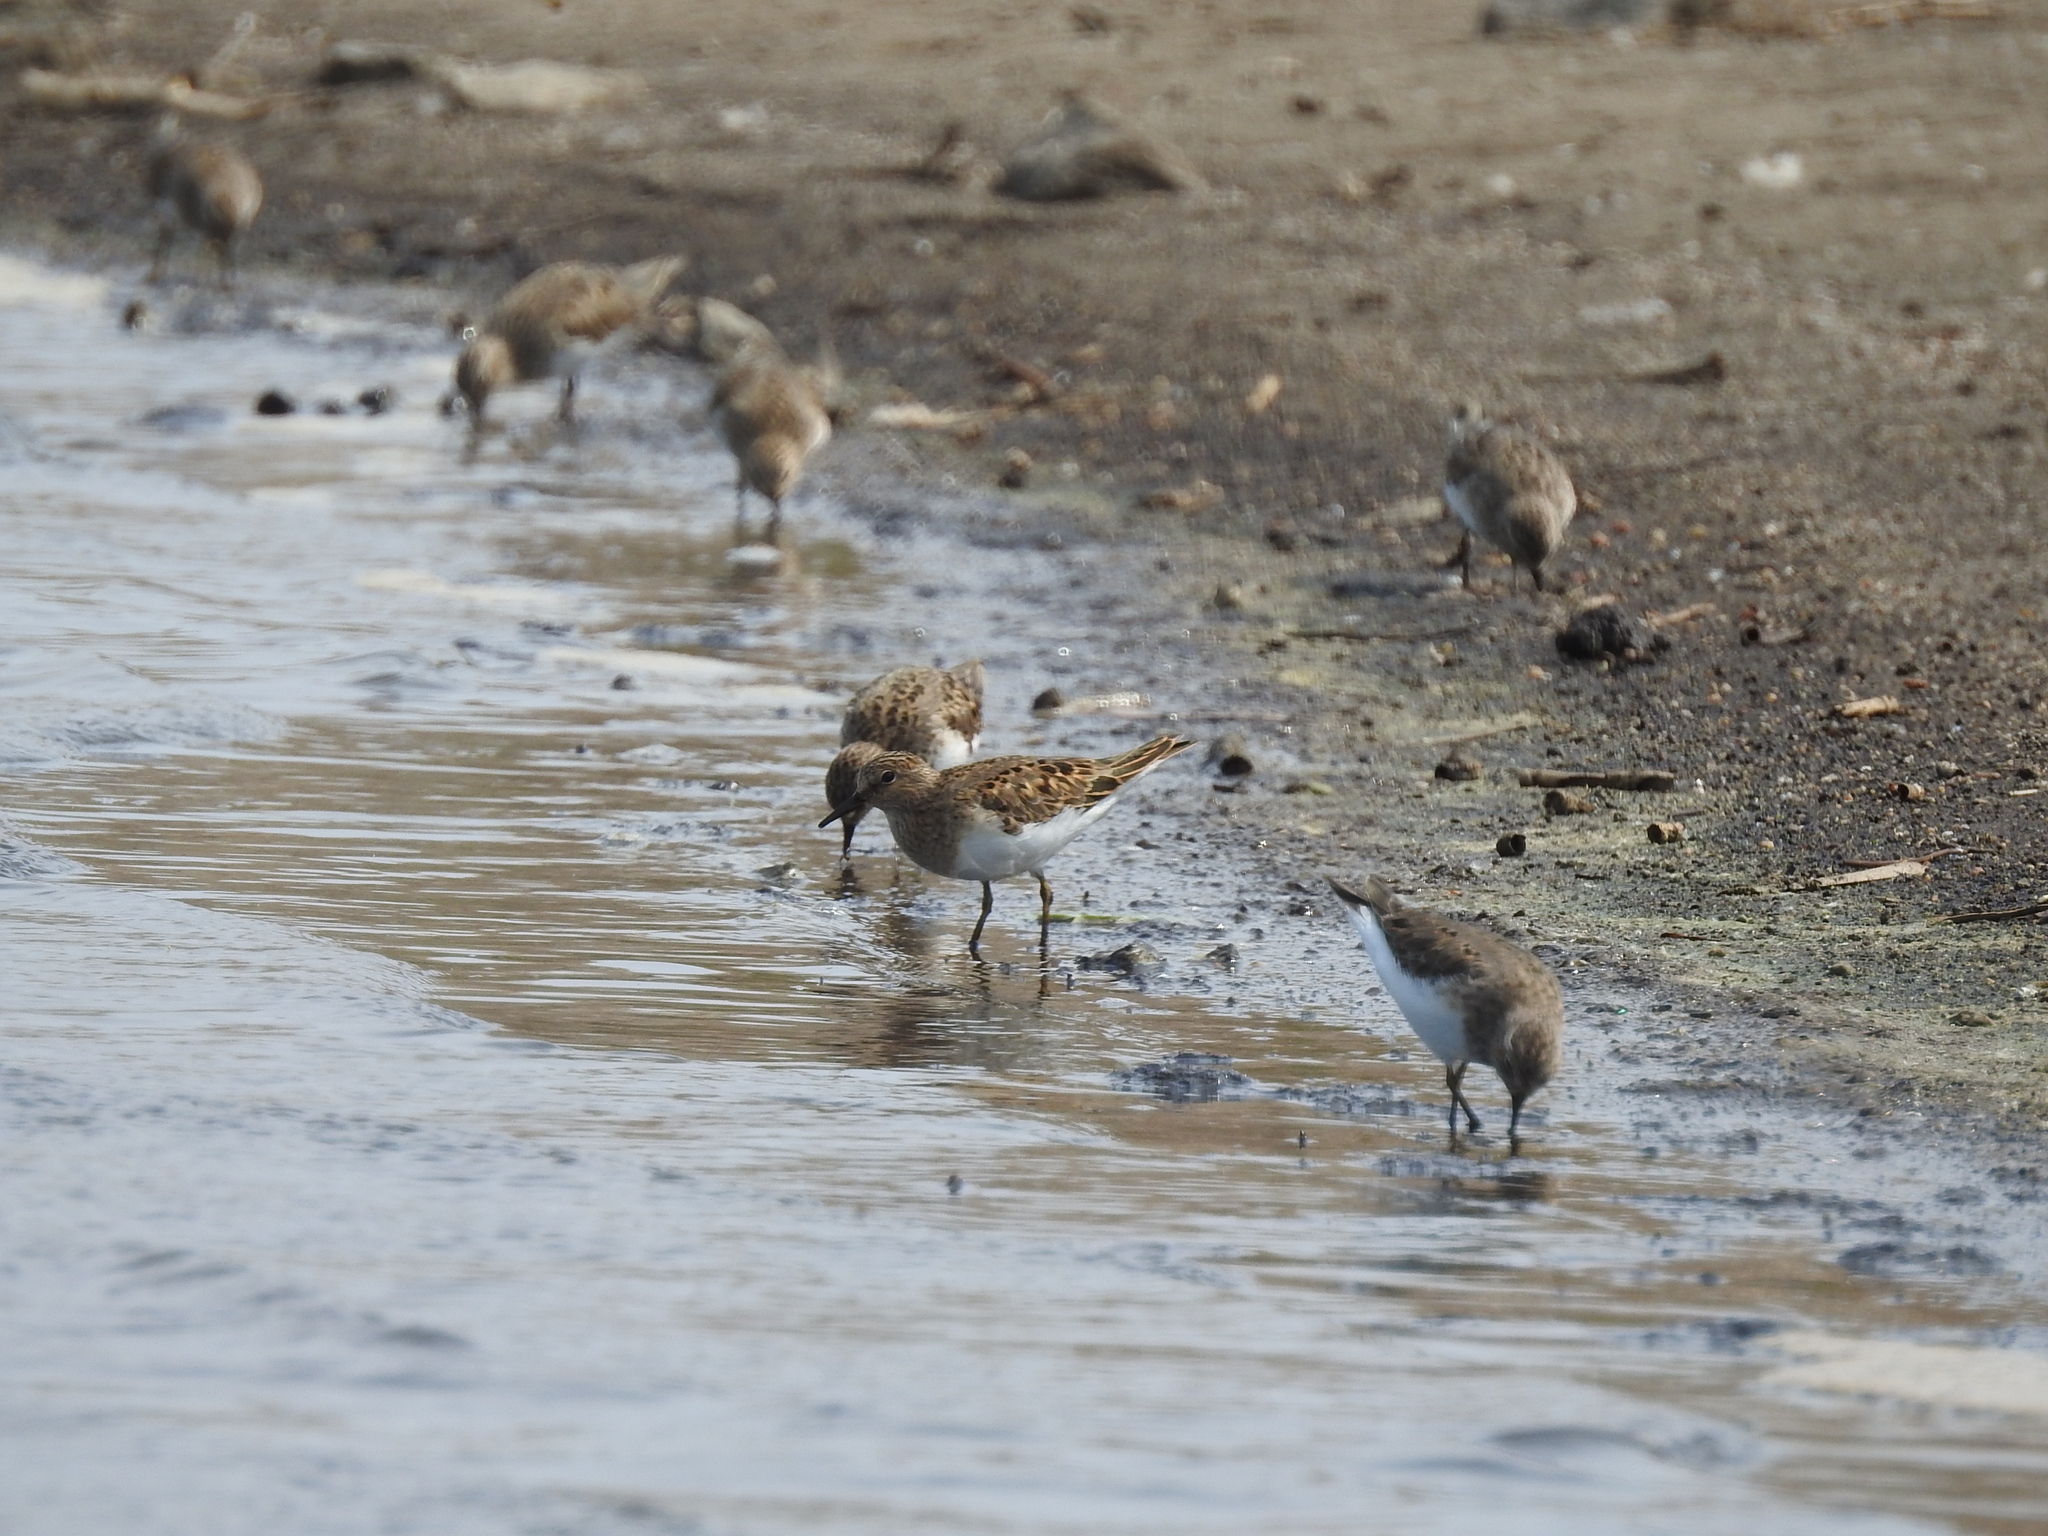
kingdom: Animalia
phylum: Chordata
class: Aves
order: Charadriiformes
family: Scolopacidae
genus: Calidris
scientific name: Calidris temminckii
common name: Temminck's stint
